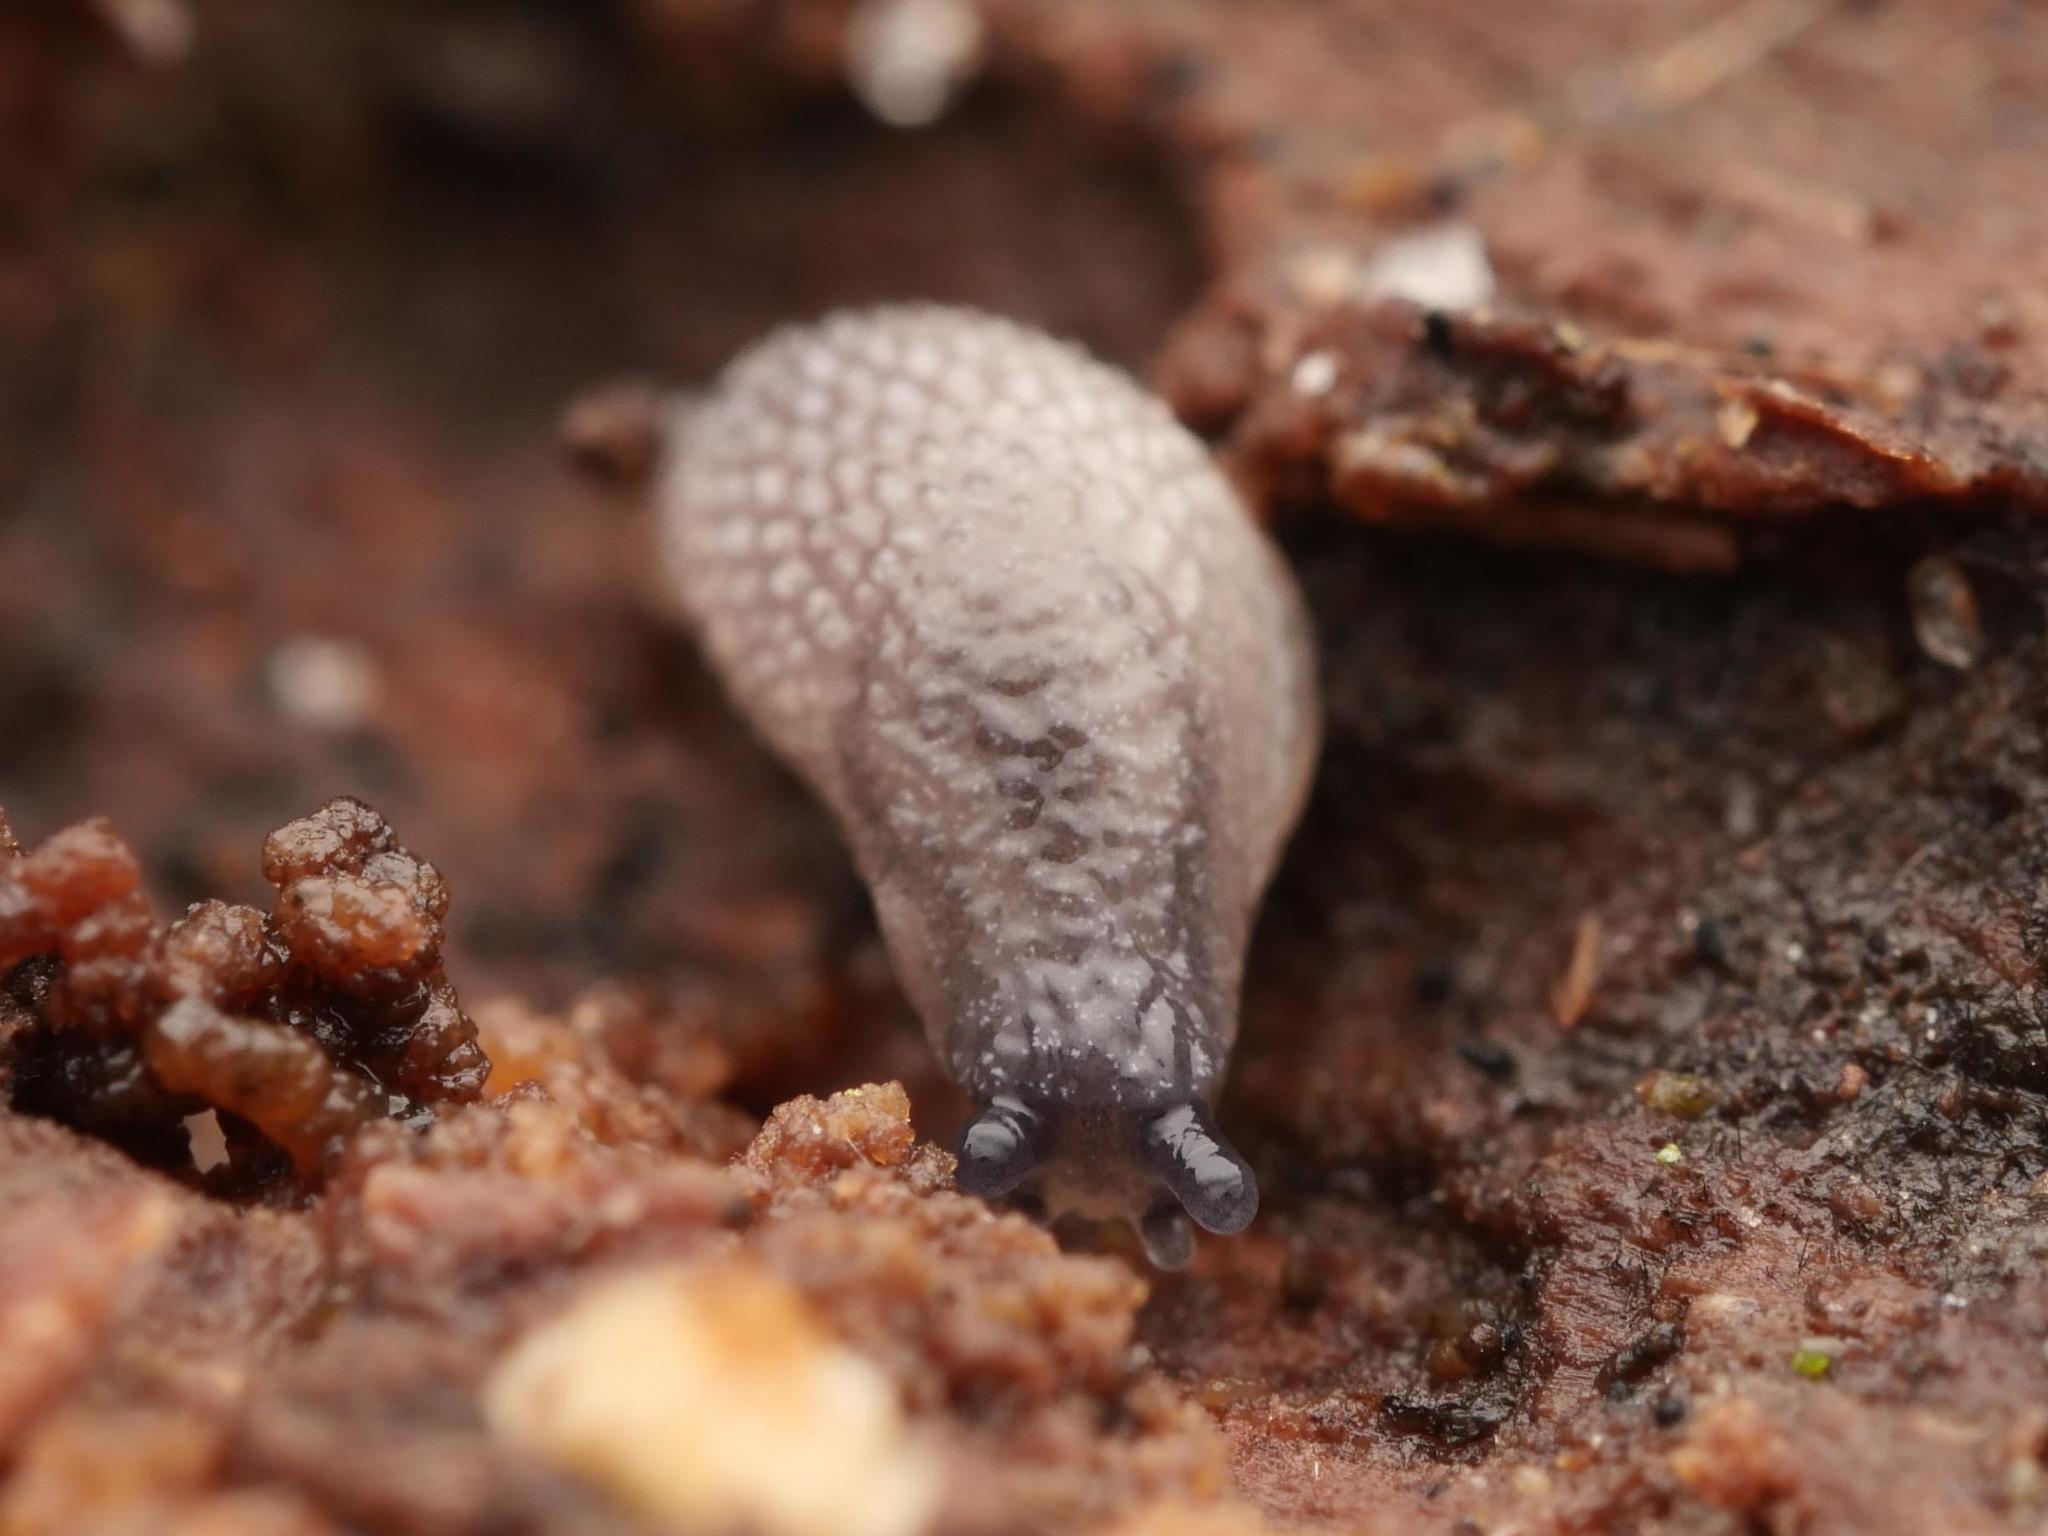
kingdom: Animalia
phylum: Mollusca
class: Gastropoda
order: Stylommatophora
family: Arionidae
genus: Arion
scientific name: Arion intermedius
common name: Hedgehog slug
